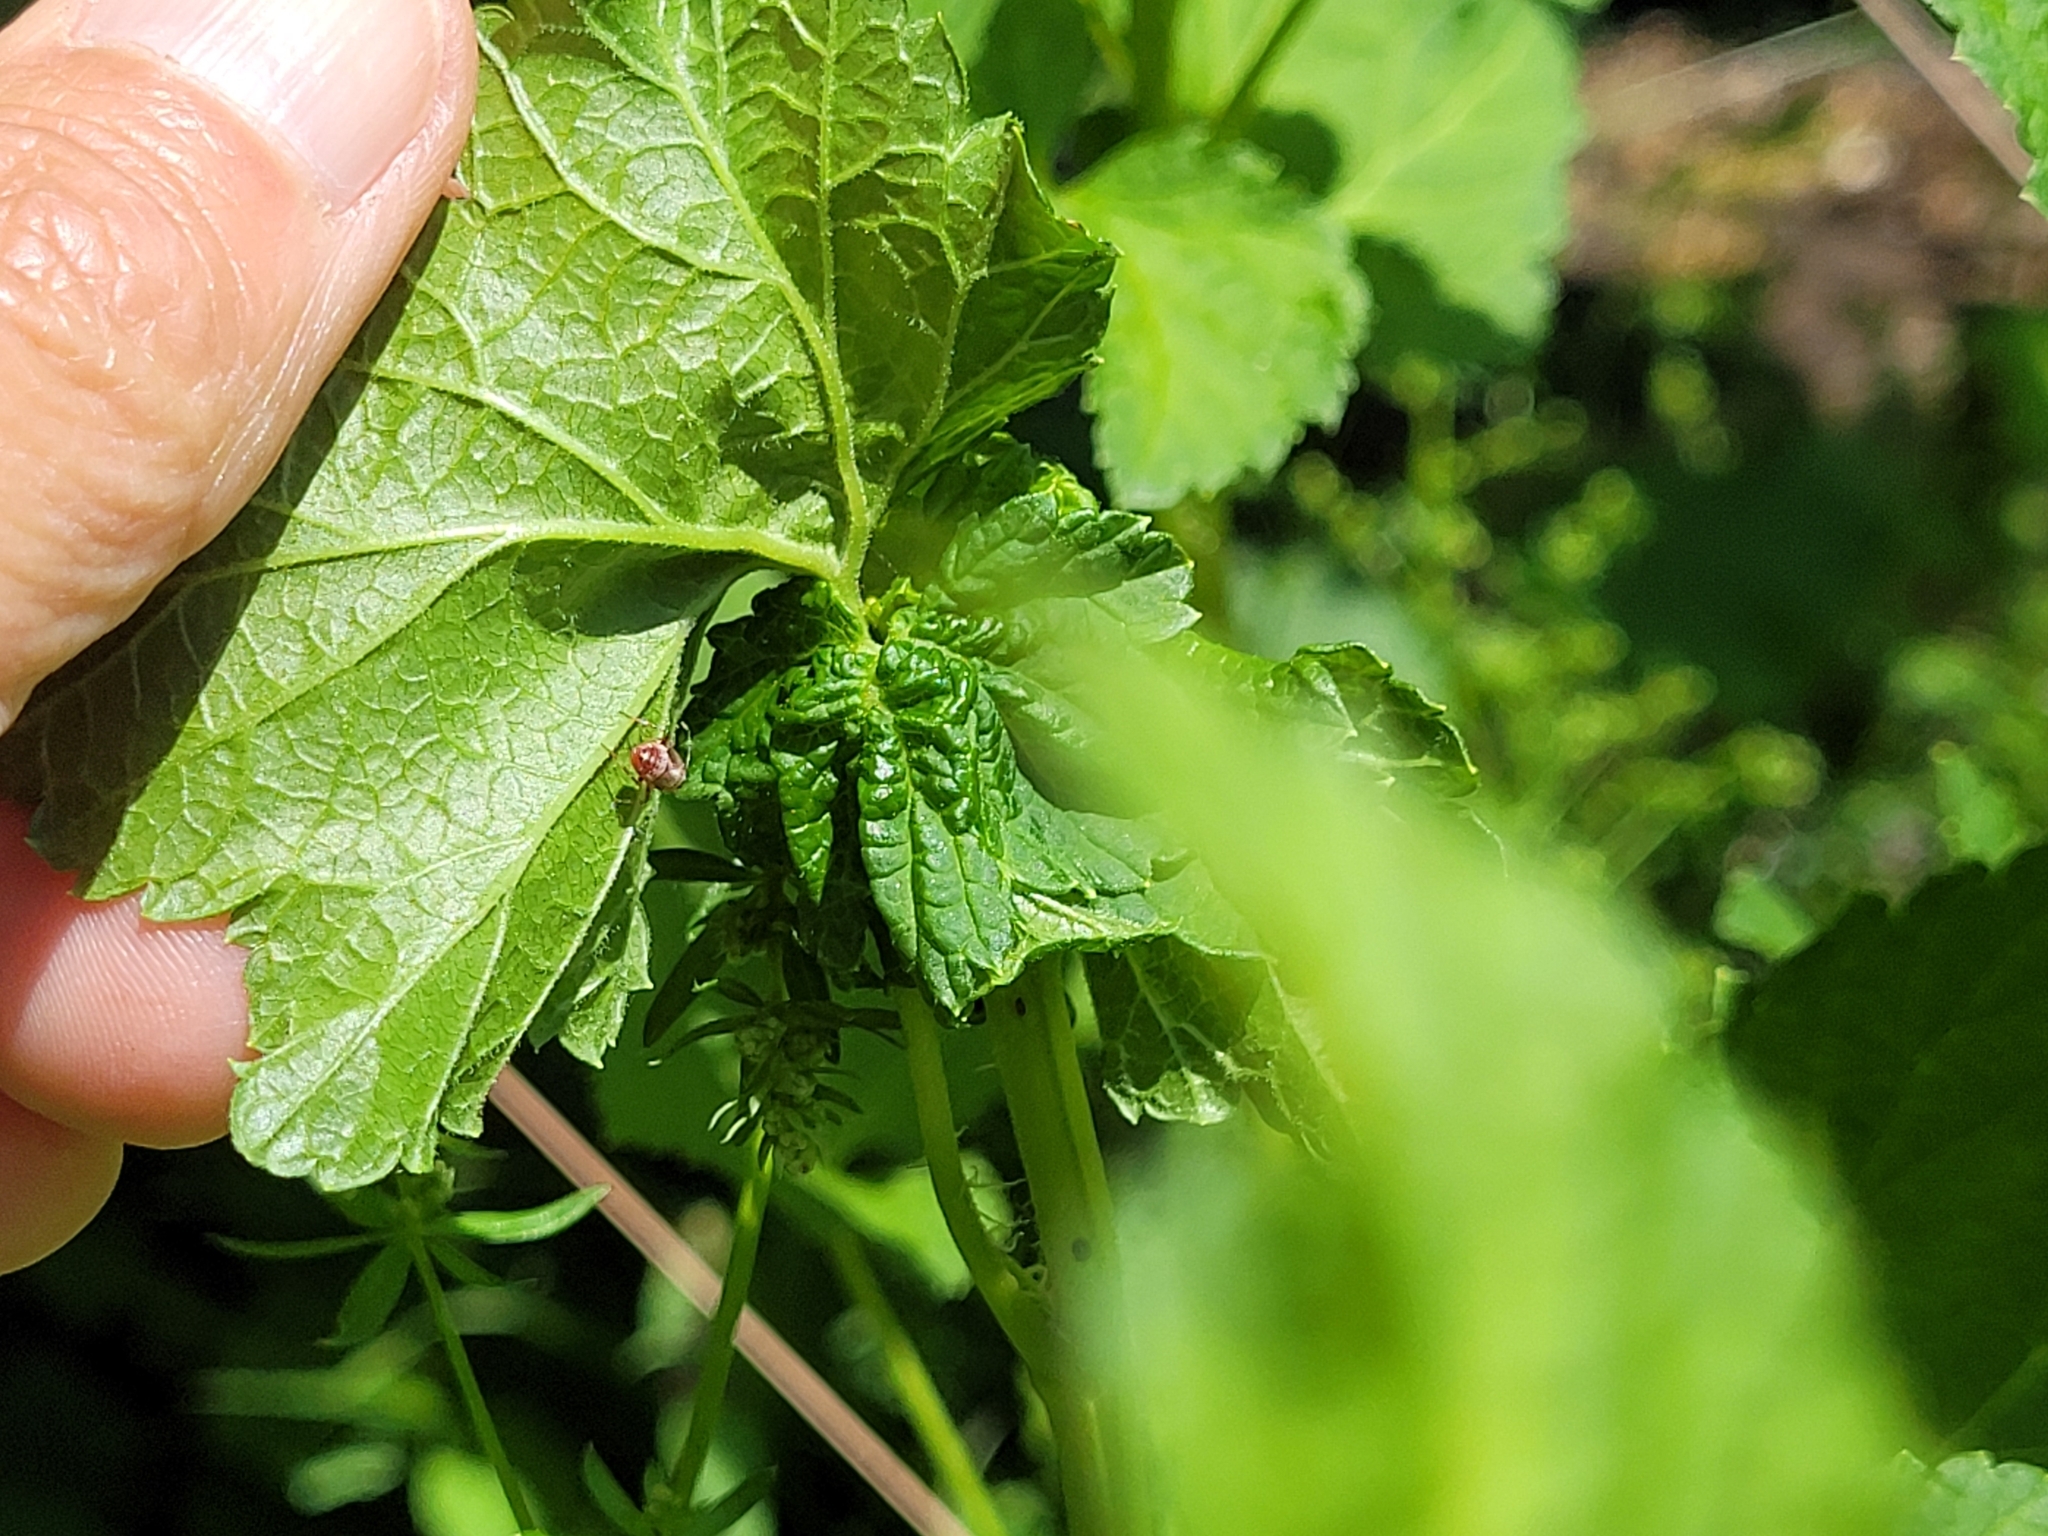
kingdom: Animalia
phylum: Arthropoda
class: Insecta
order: Hemiptera
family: Miridae
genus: Deraeocoris
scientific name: Deraeocoris flavilinea
